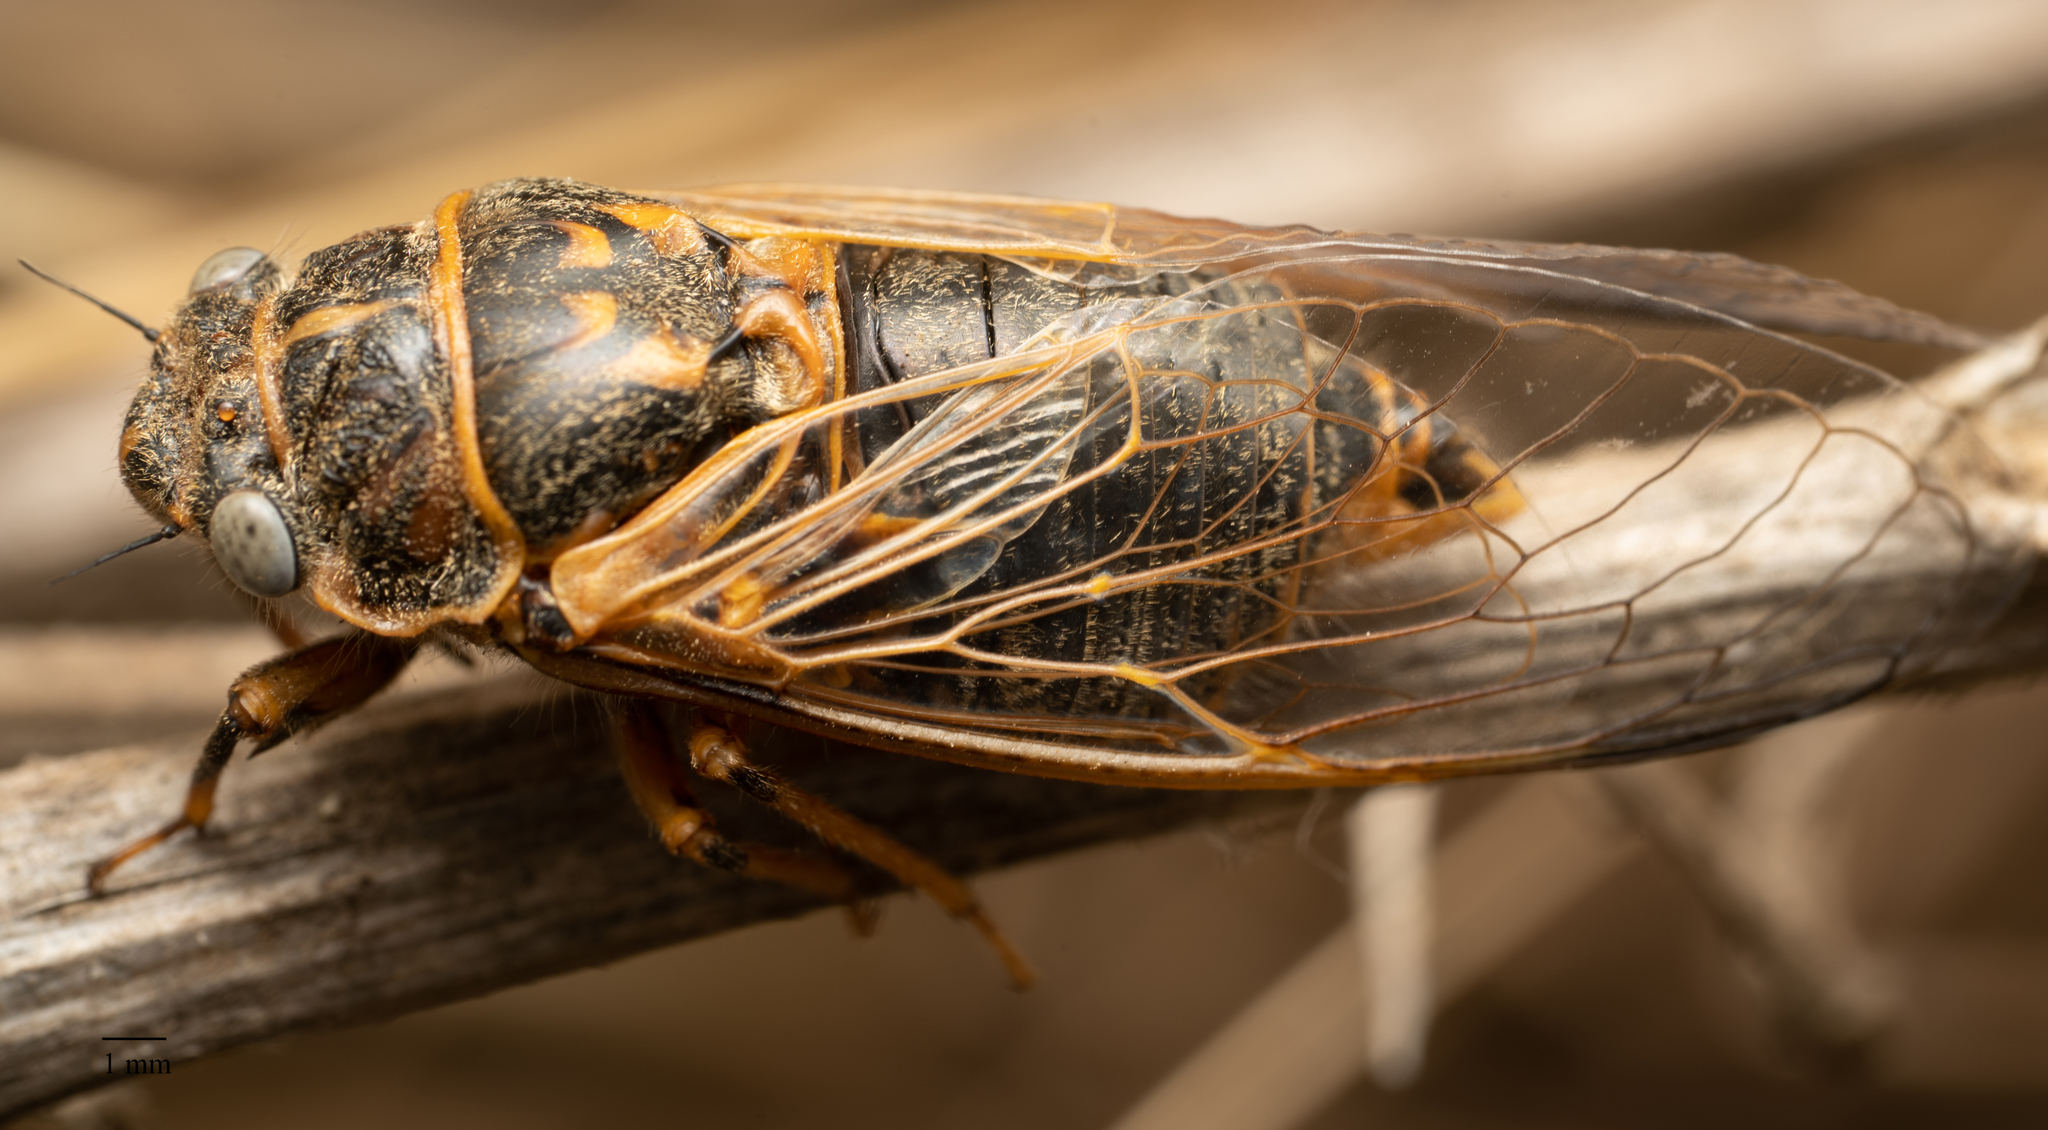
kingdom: Animalia
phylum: Arthropoda
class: Insecta
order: Hemiptera
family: Cicadidae
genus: Tibicinoides
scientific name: Tibicinoides
